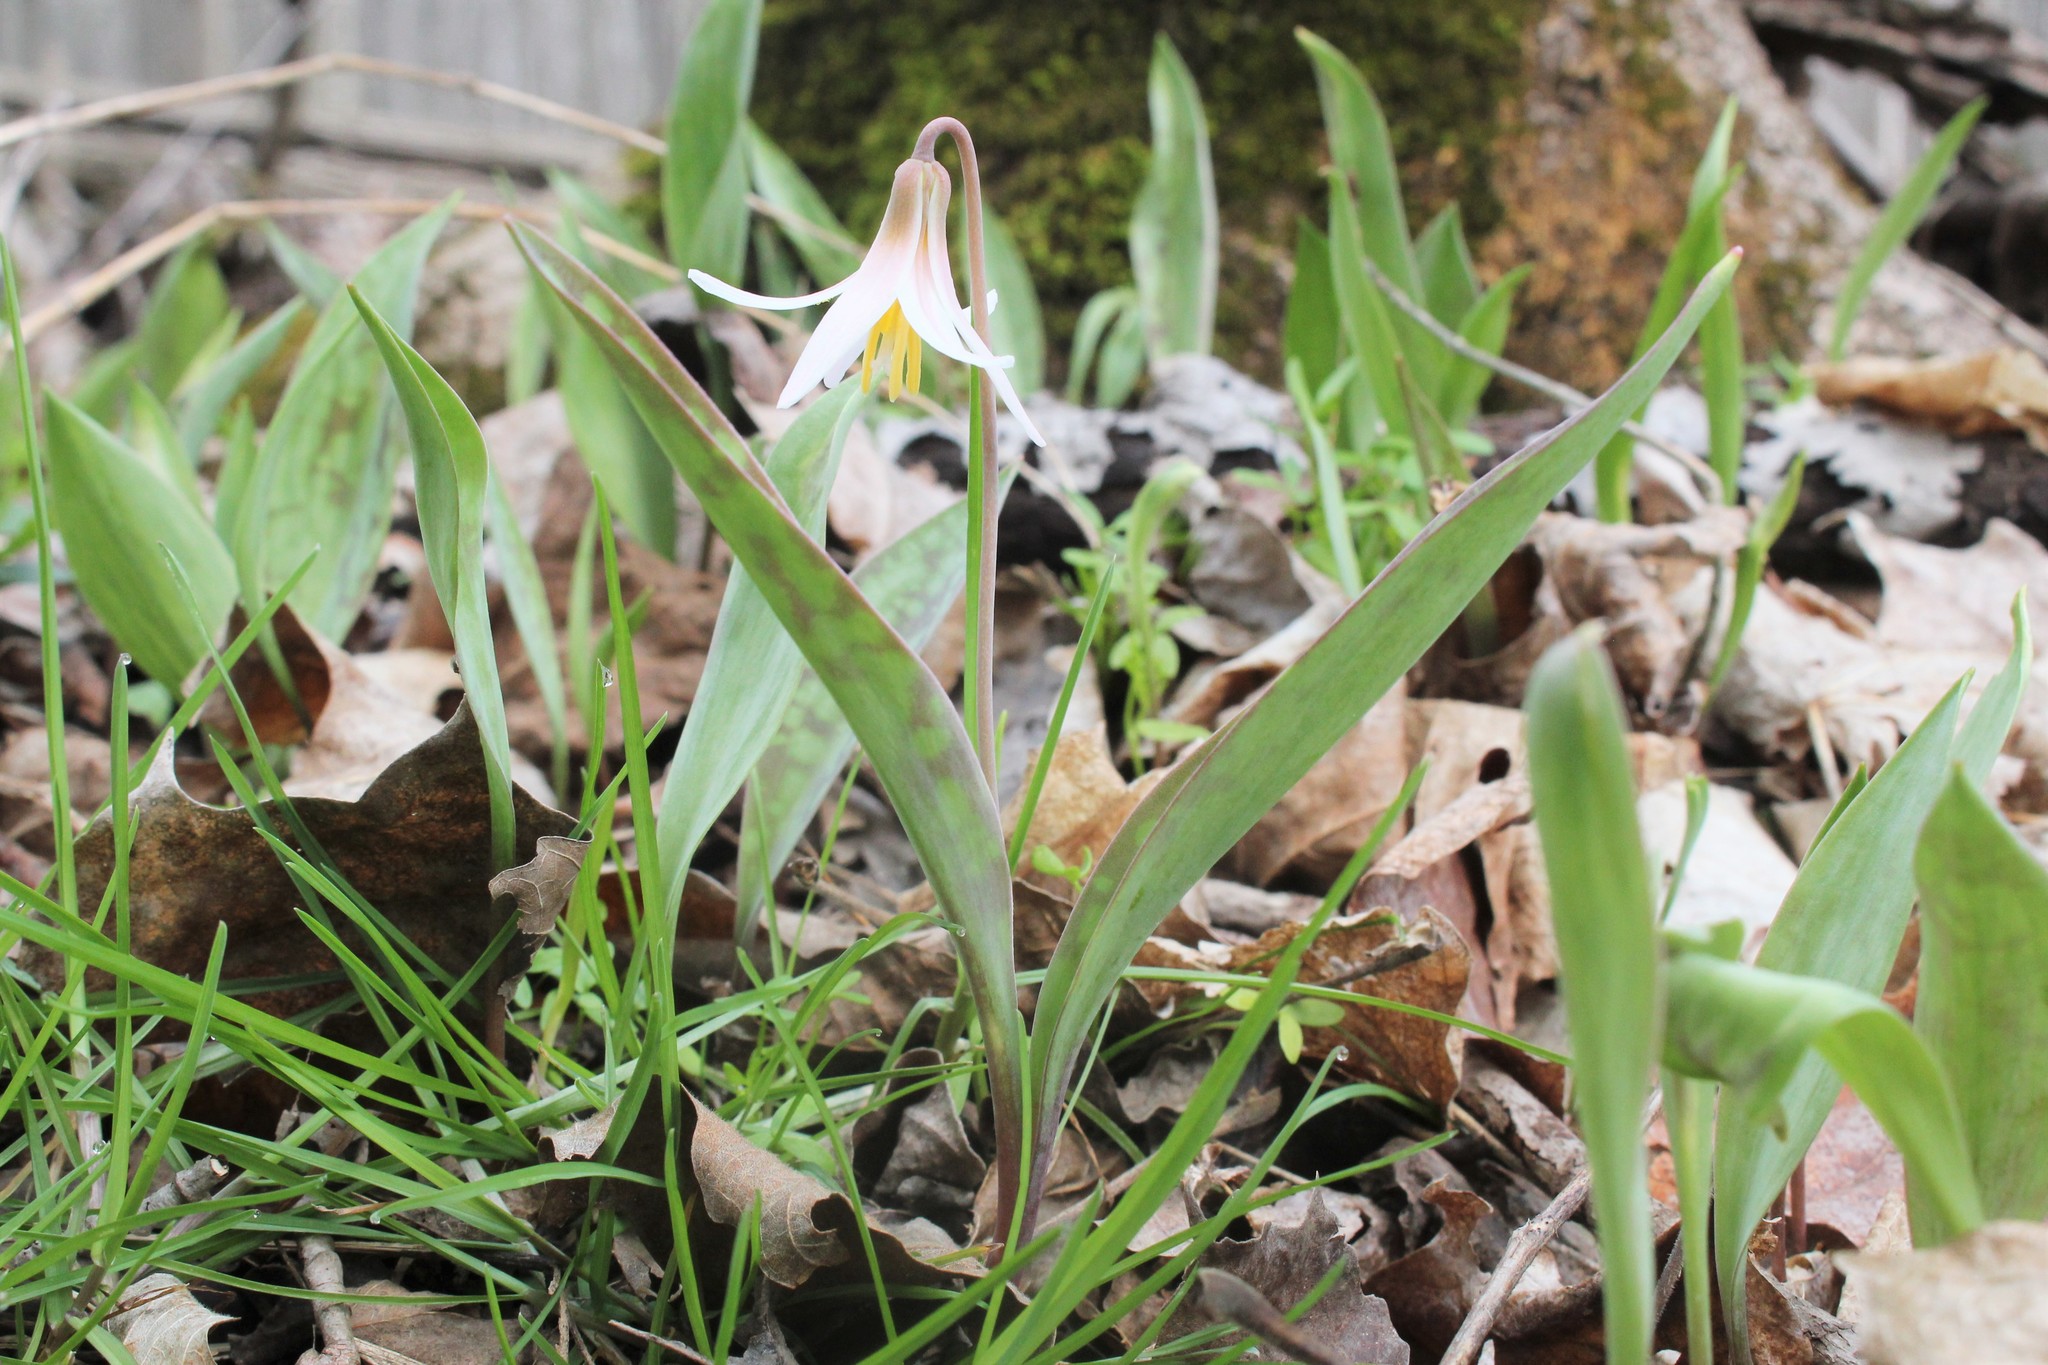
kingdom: Plantae
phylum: Tracheophyta
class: Liliopsida
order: Liliales
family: Liliaceae
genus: Erythronium
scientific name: Erythronium albidum
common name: White trout-lily
